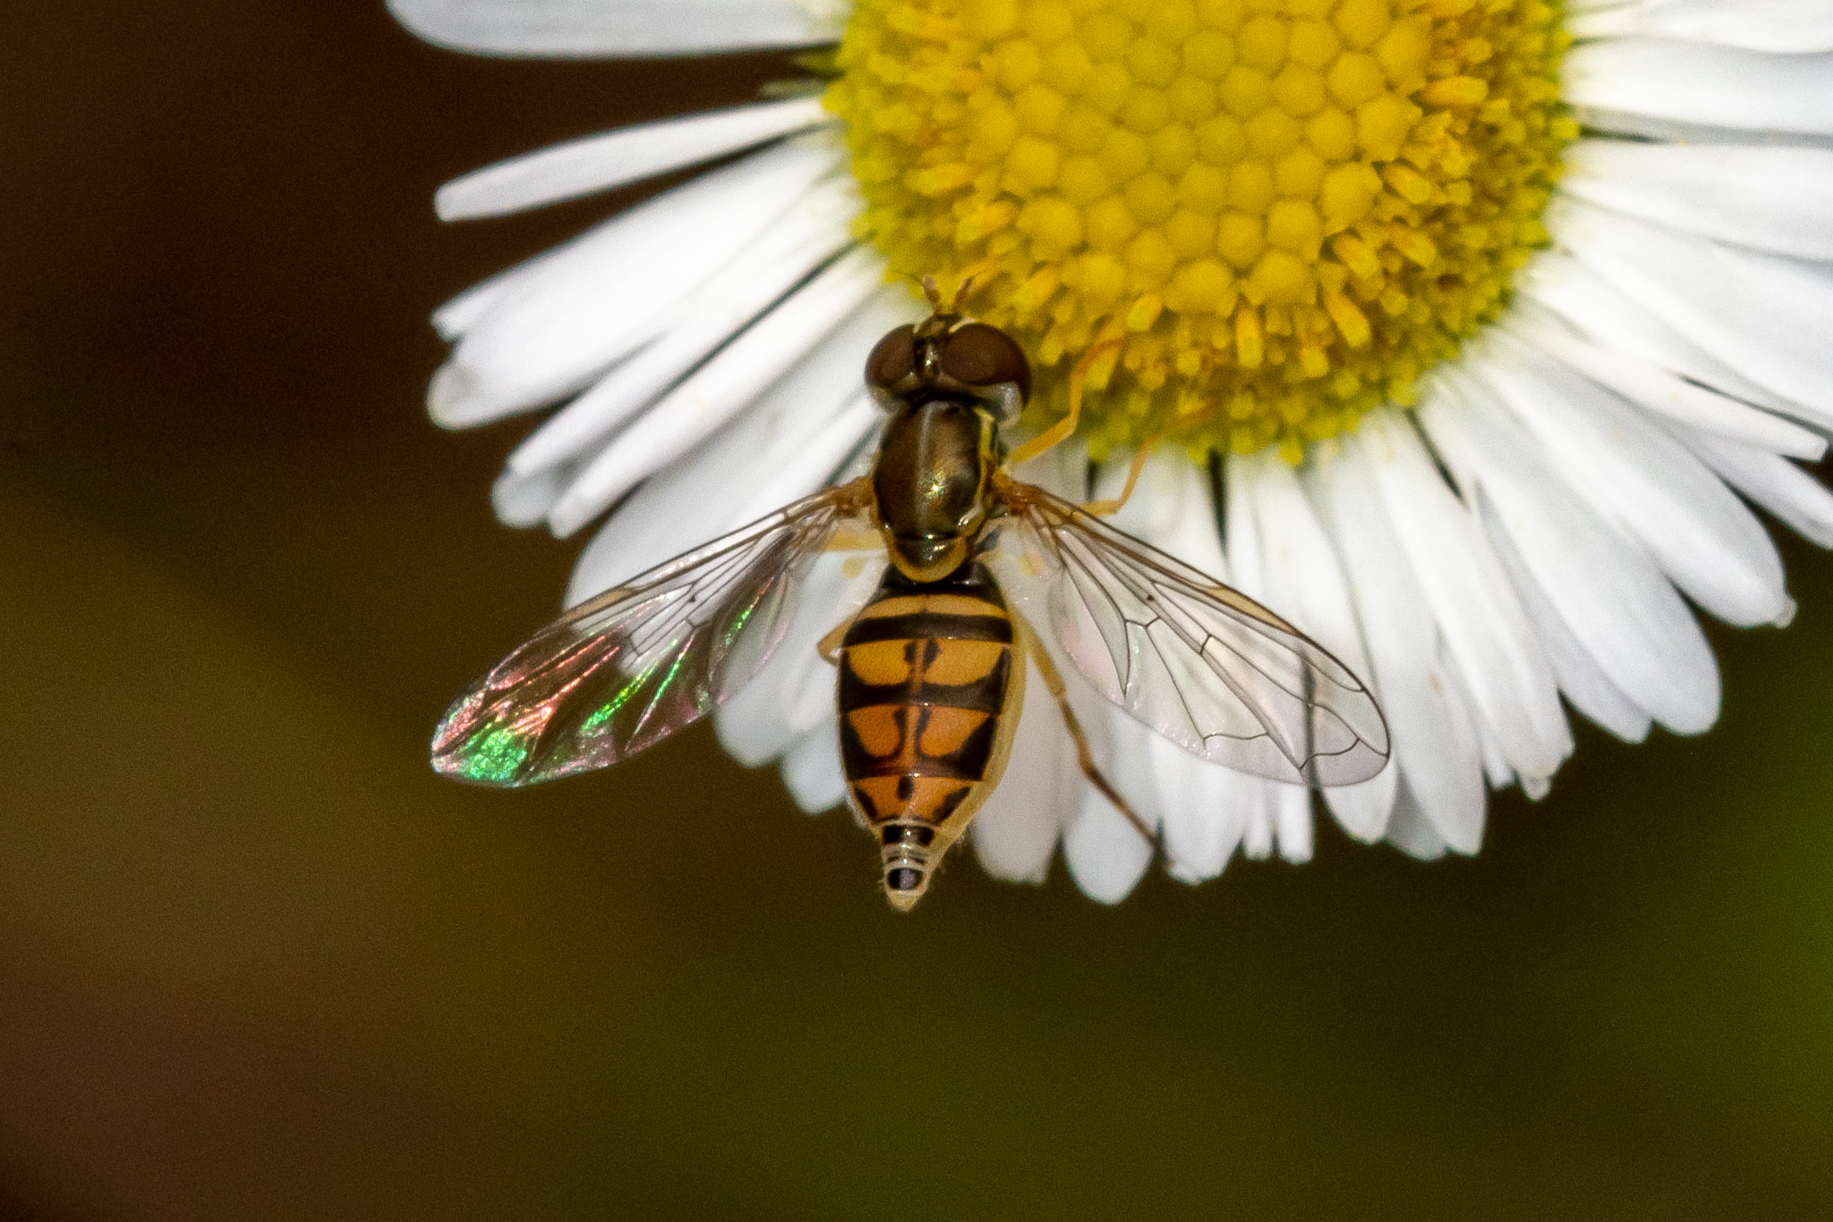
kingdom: Animalia
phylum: Arthropoda
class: Insecta
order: Diptera
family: Syrphidae
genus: Toxomerus
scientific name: Toxomerus marginatus
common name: Syrphid fly
